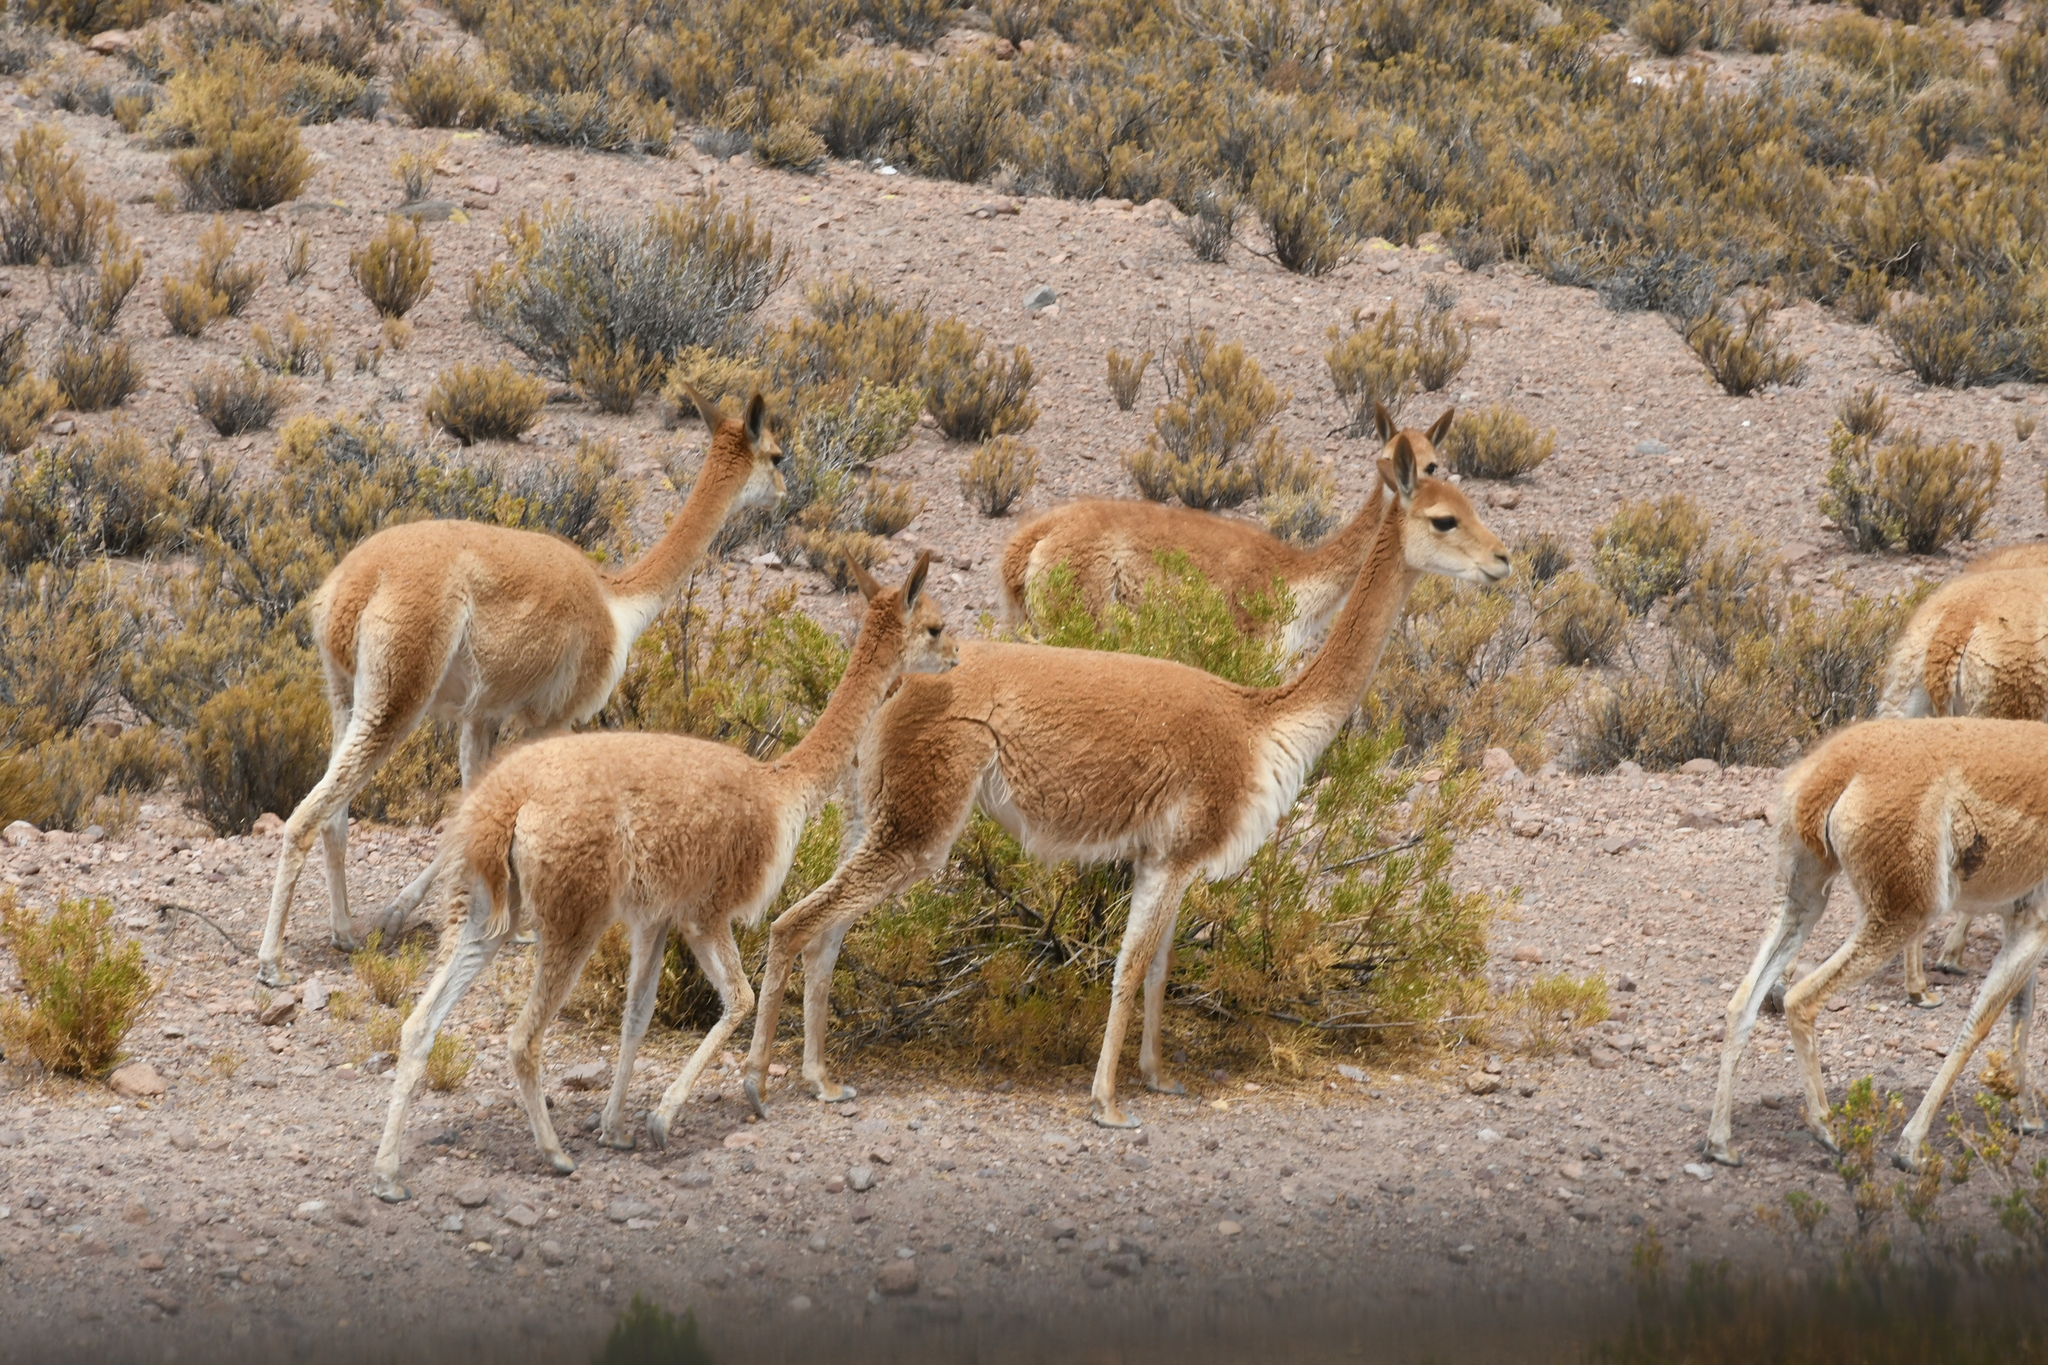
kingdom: Animalia
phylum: Chordata
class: Mammalia
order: Artiodactyla
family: Camelidae
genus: Vicugna
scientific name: Vicugna vicugna
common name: Vicugna
